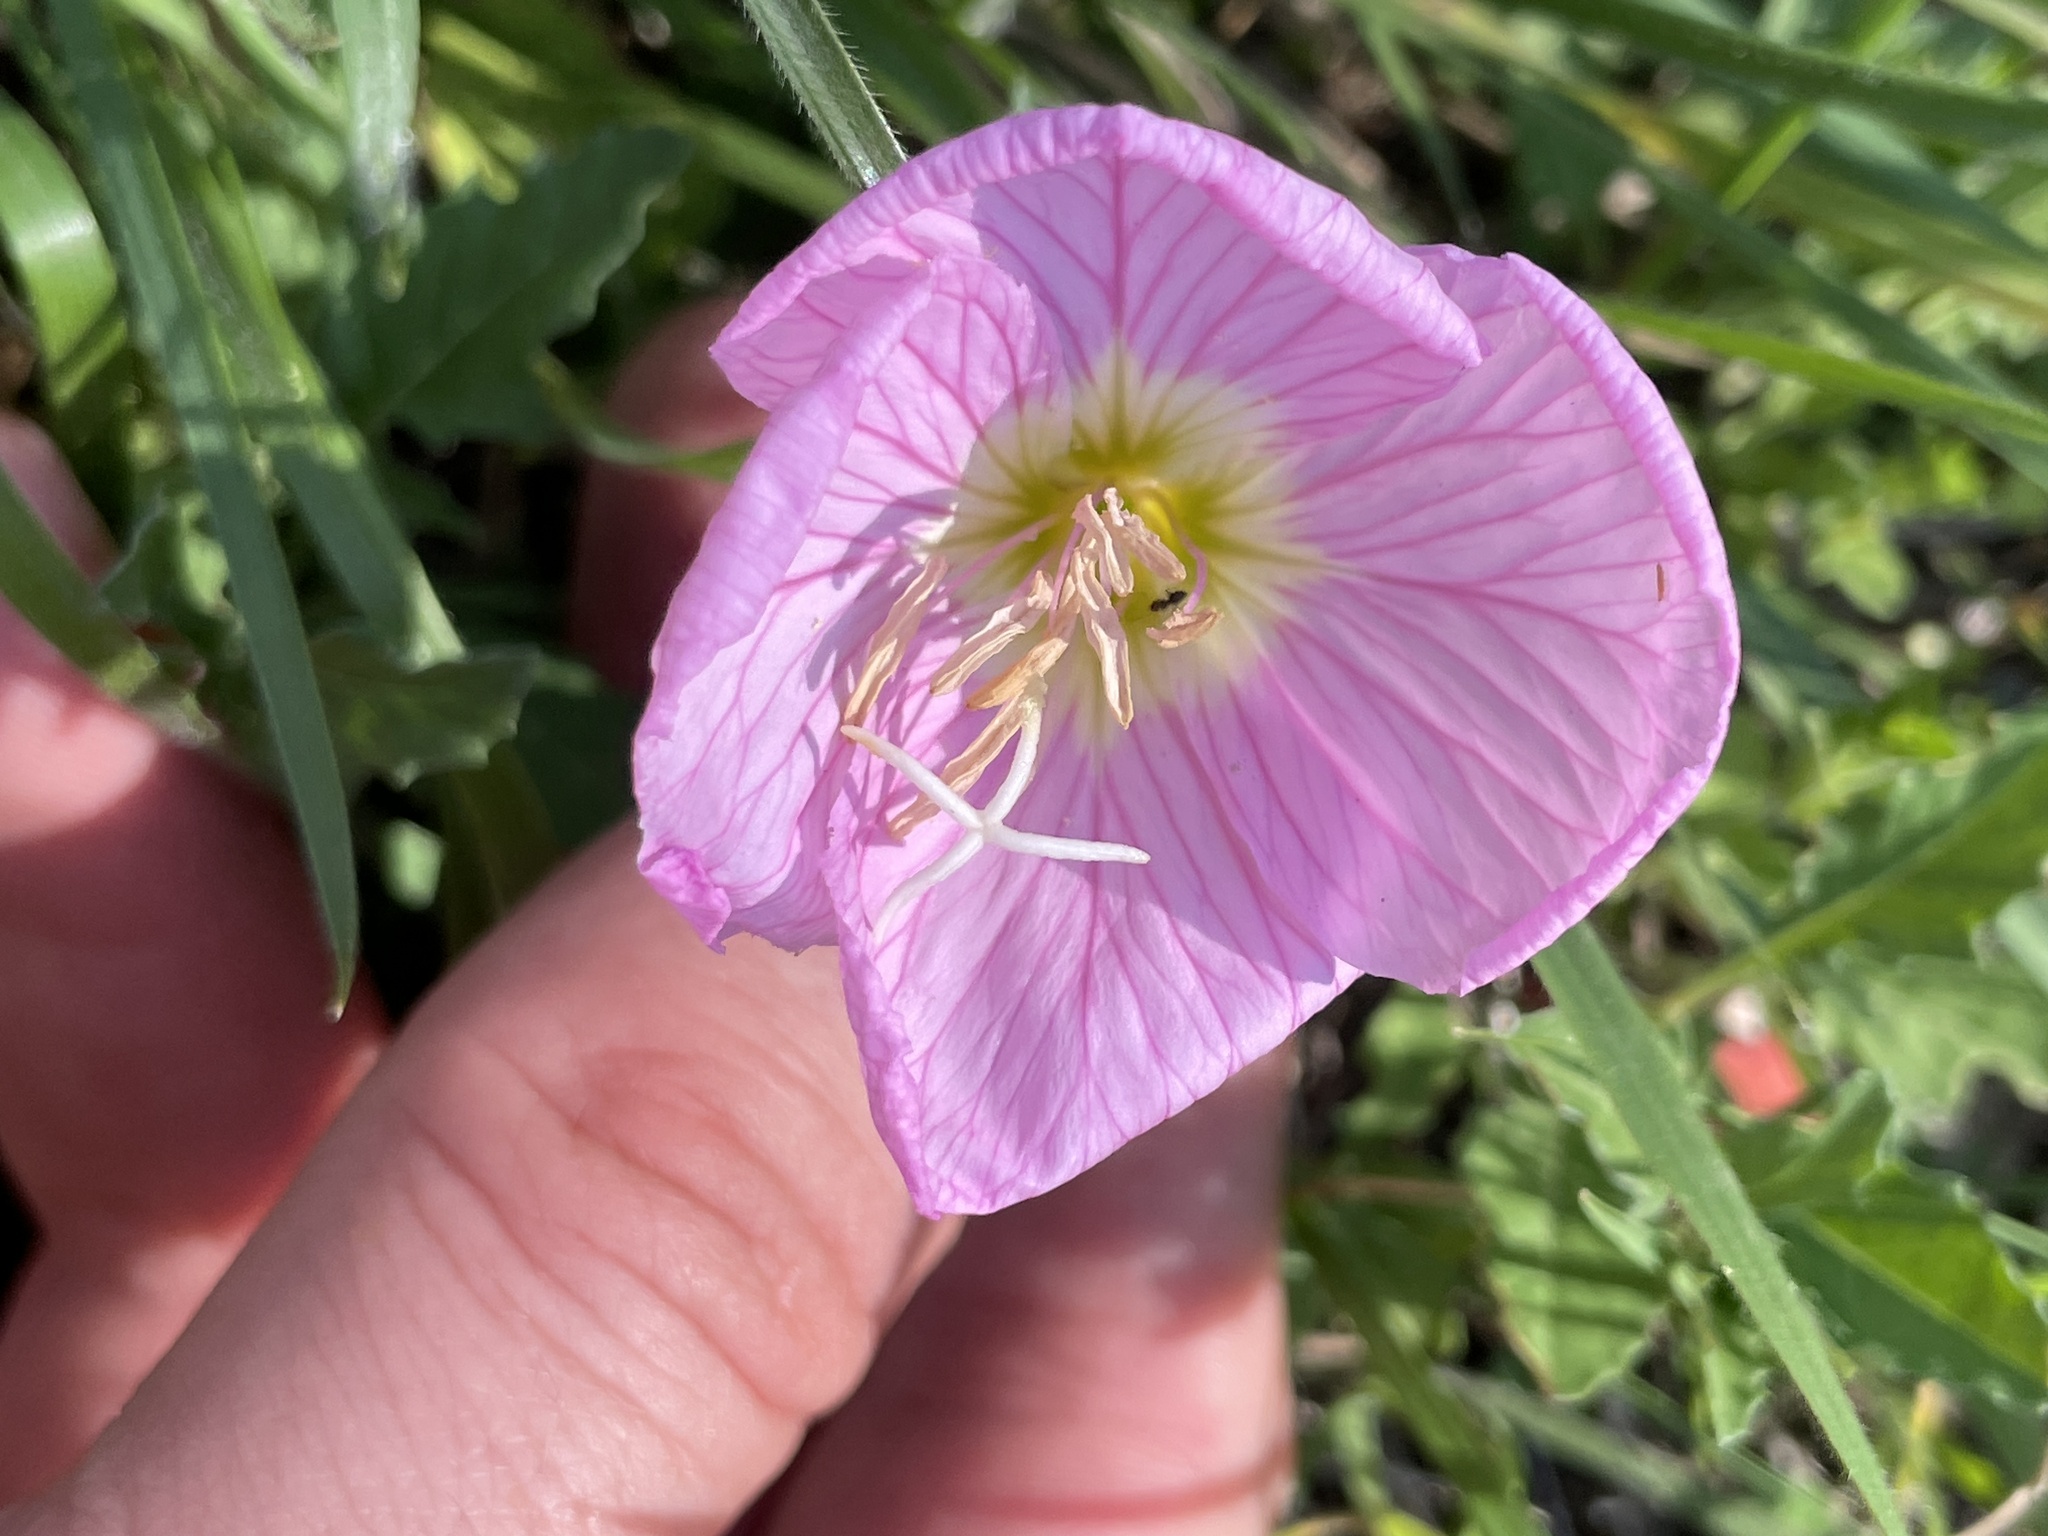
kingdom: Plantae
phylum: Tracheophyta
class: Magnoliopsida
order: Myrtales
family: Onagraceae
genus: Oenothera
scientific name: Oenothera speciosa
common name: White evening-primrose
